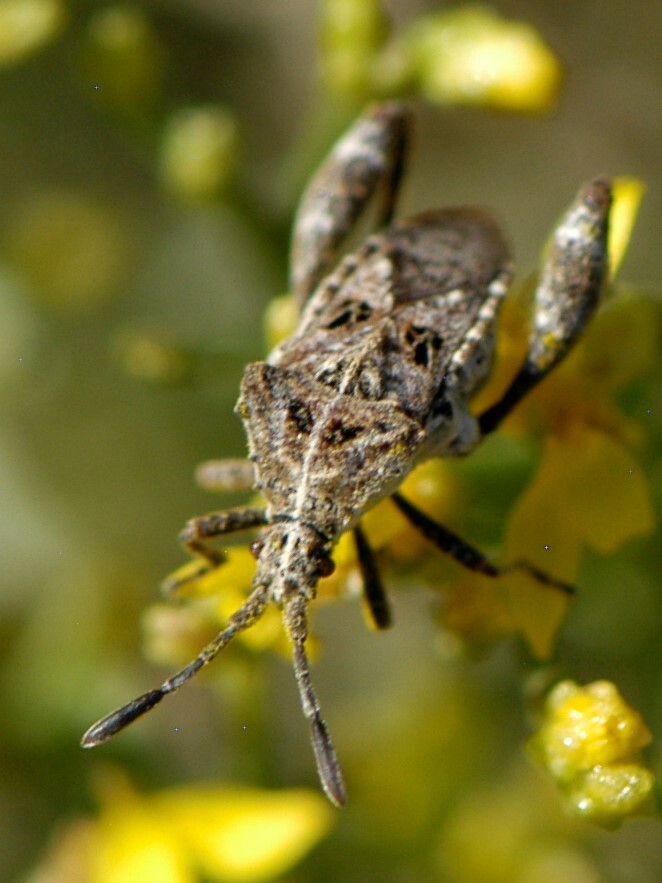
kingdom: Animalia
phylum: Arthropoda
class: Insecta
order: Hemiptera
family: Coreidae
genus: Merocoris
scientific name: Merocoris curtatus
